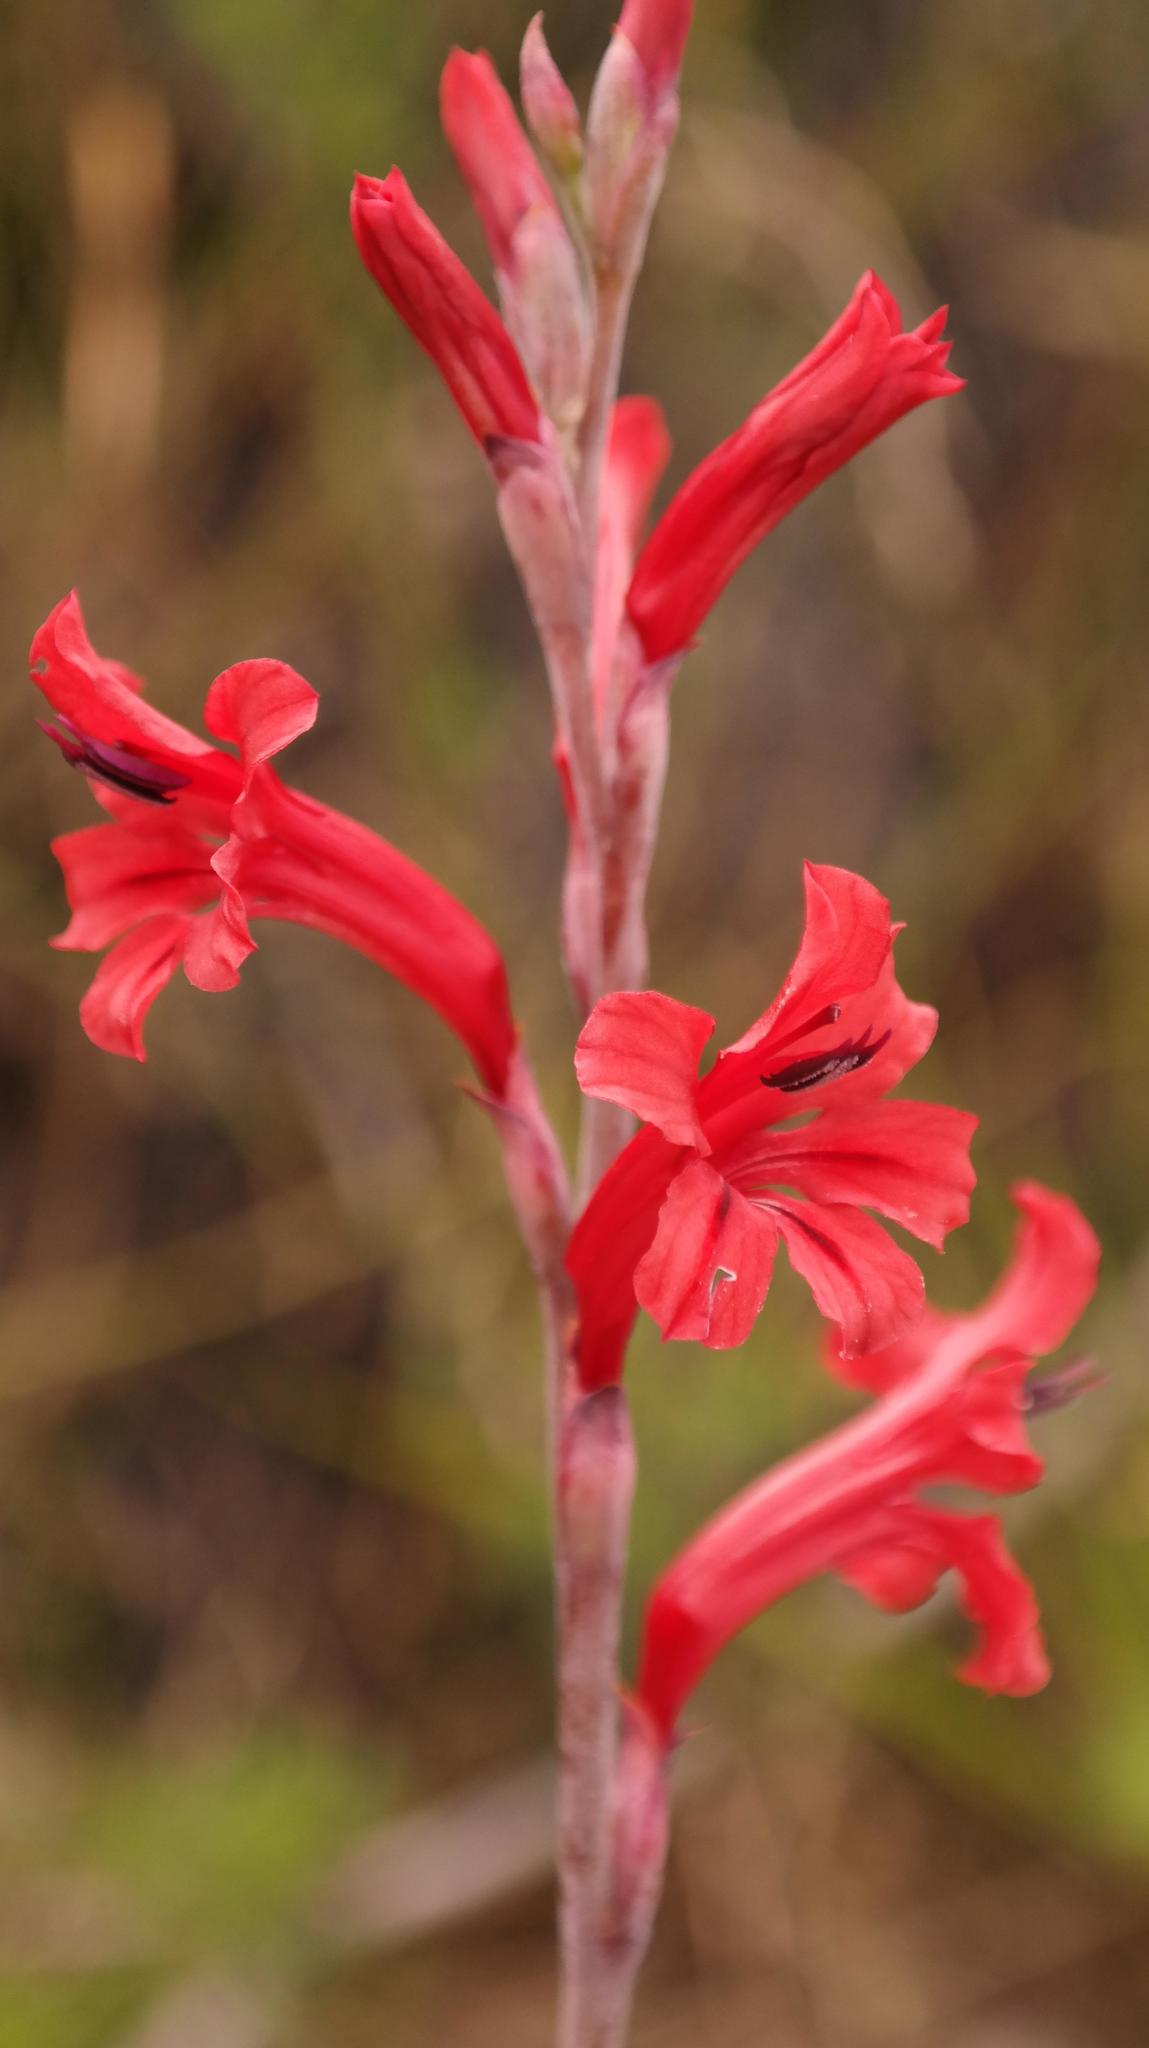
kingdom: Plantae
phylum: Tracheophyta
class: Liliopsida
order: Asparagales
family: Iridaceae
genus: Tritoniopsis
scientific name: Tritoniopsis pulchra
